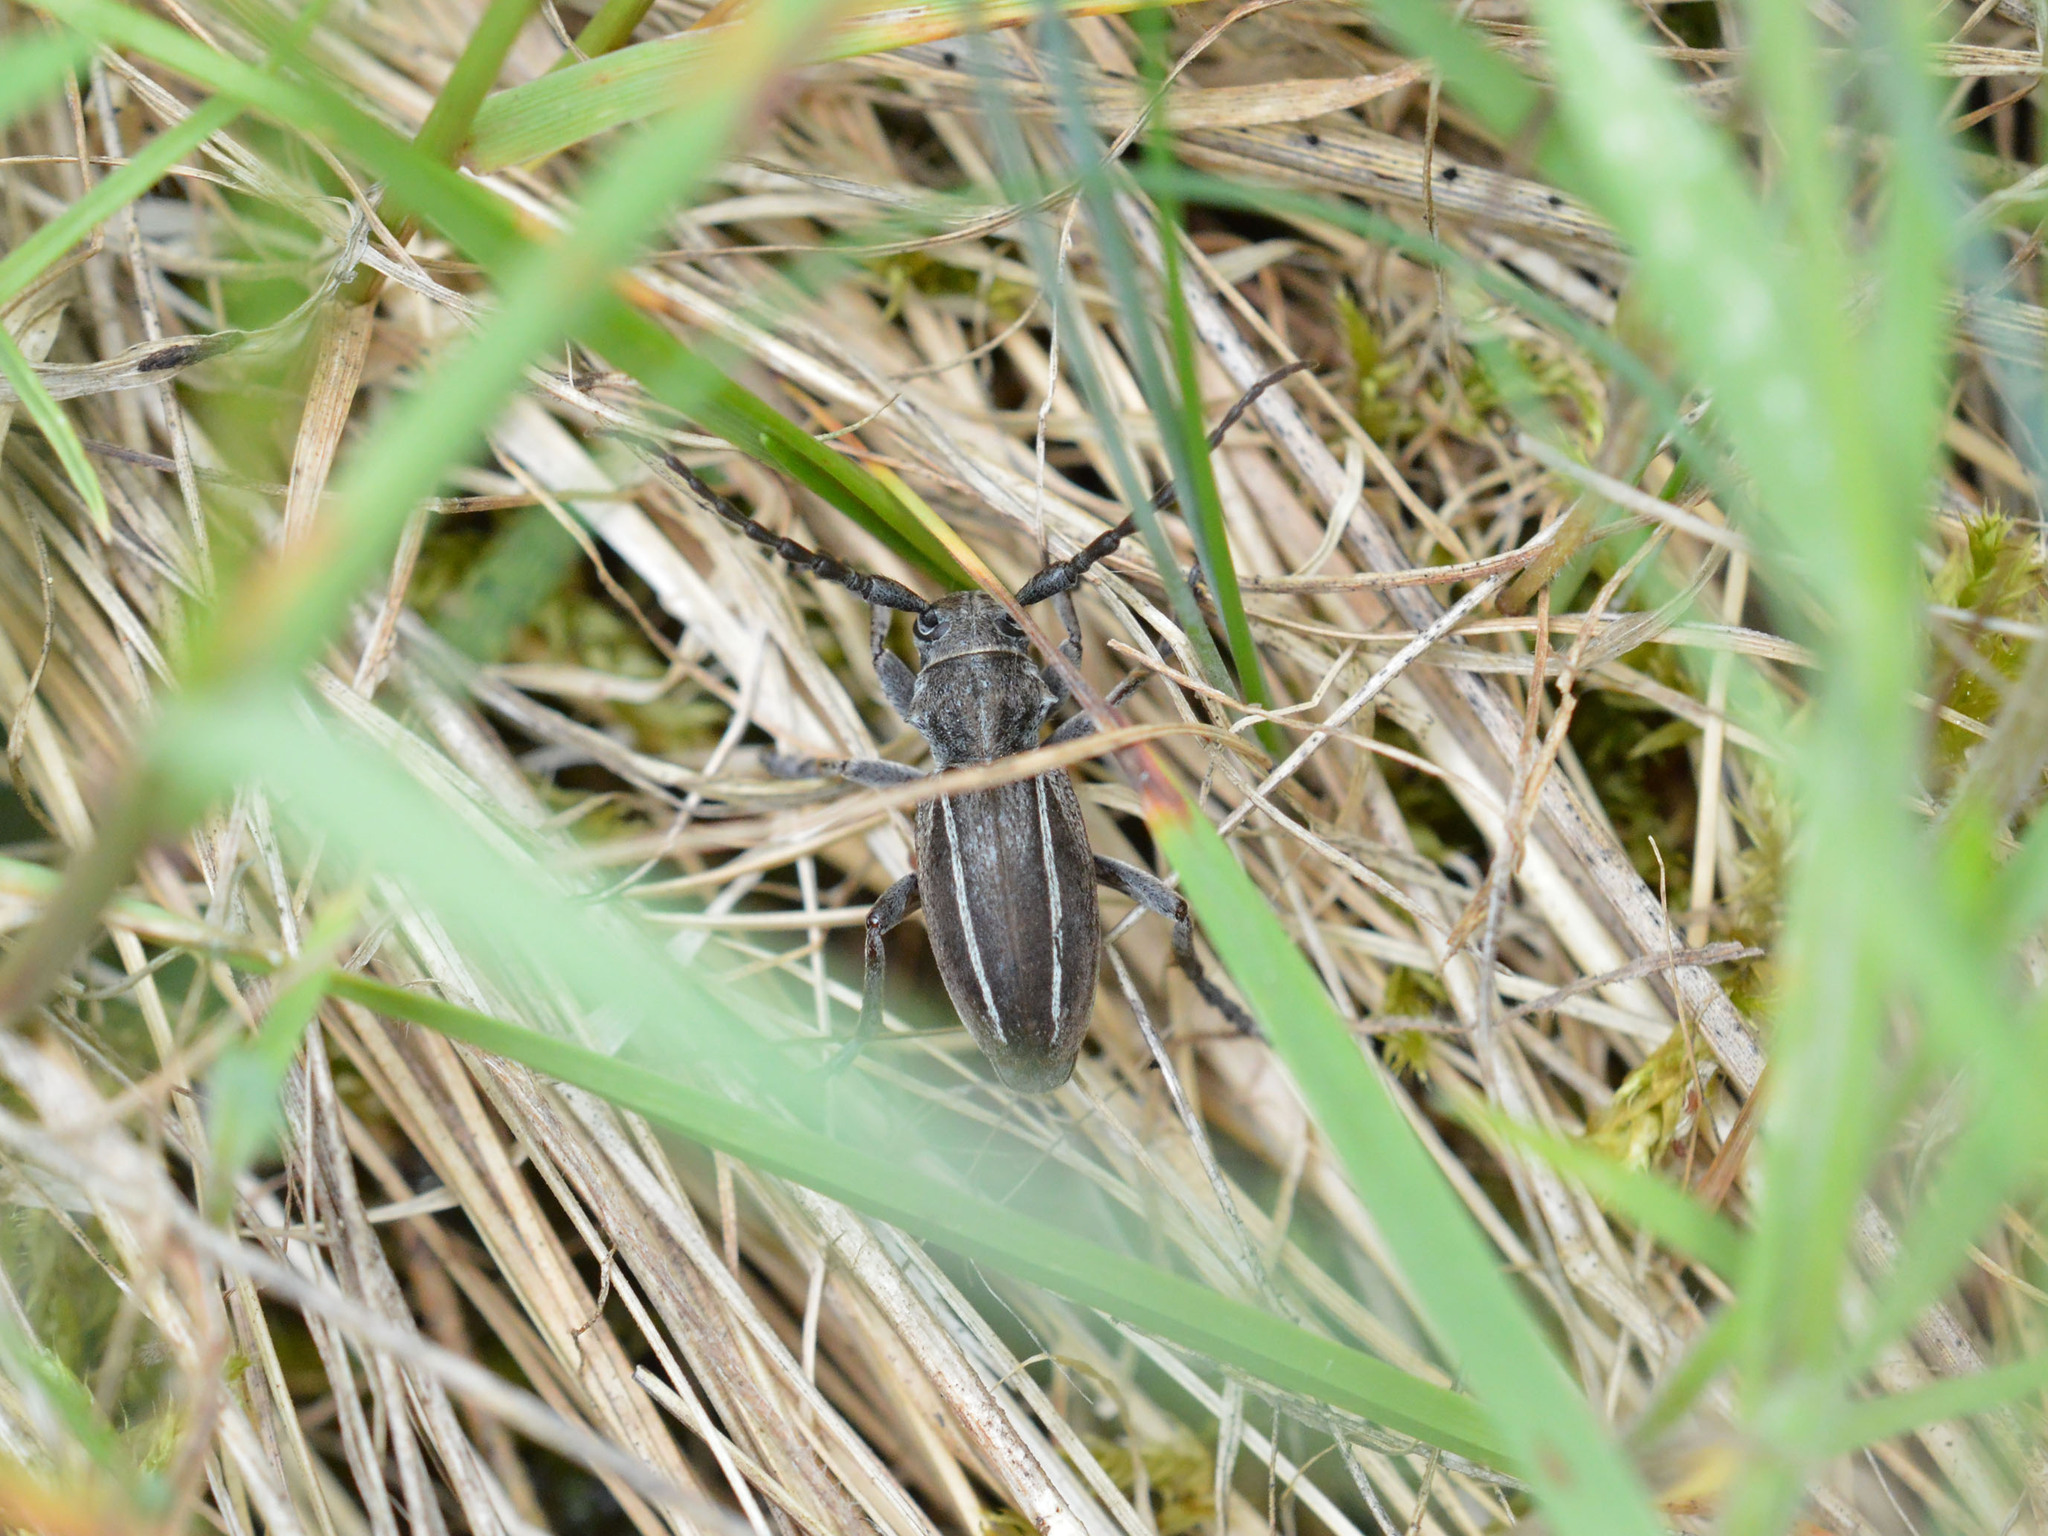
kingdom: Animalia
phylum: Arthropoda
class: Insecta
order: Coleoptera
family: Cerambycidae
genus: Neodorcadion
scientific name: Neodorcadion bilineatum
